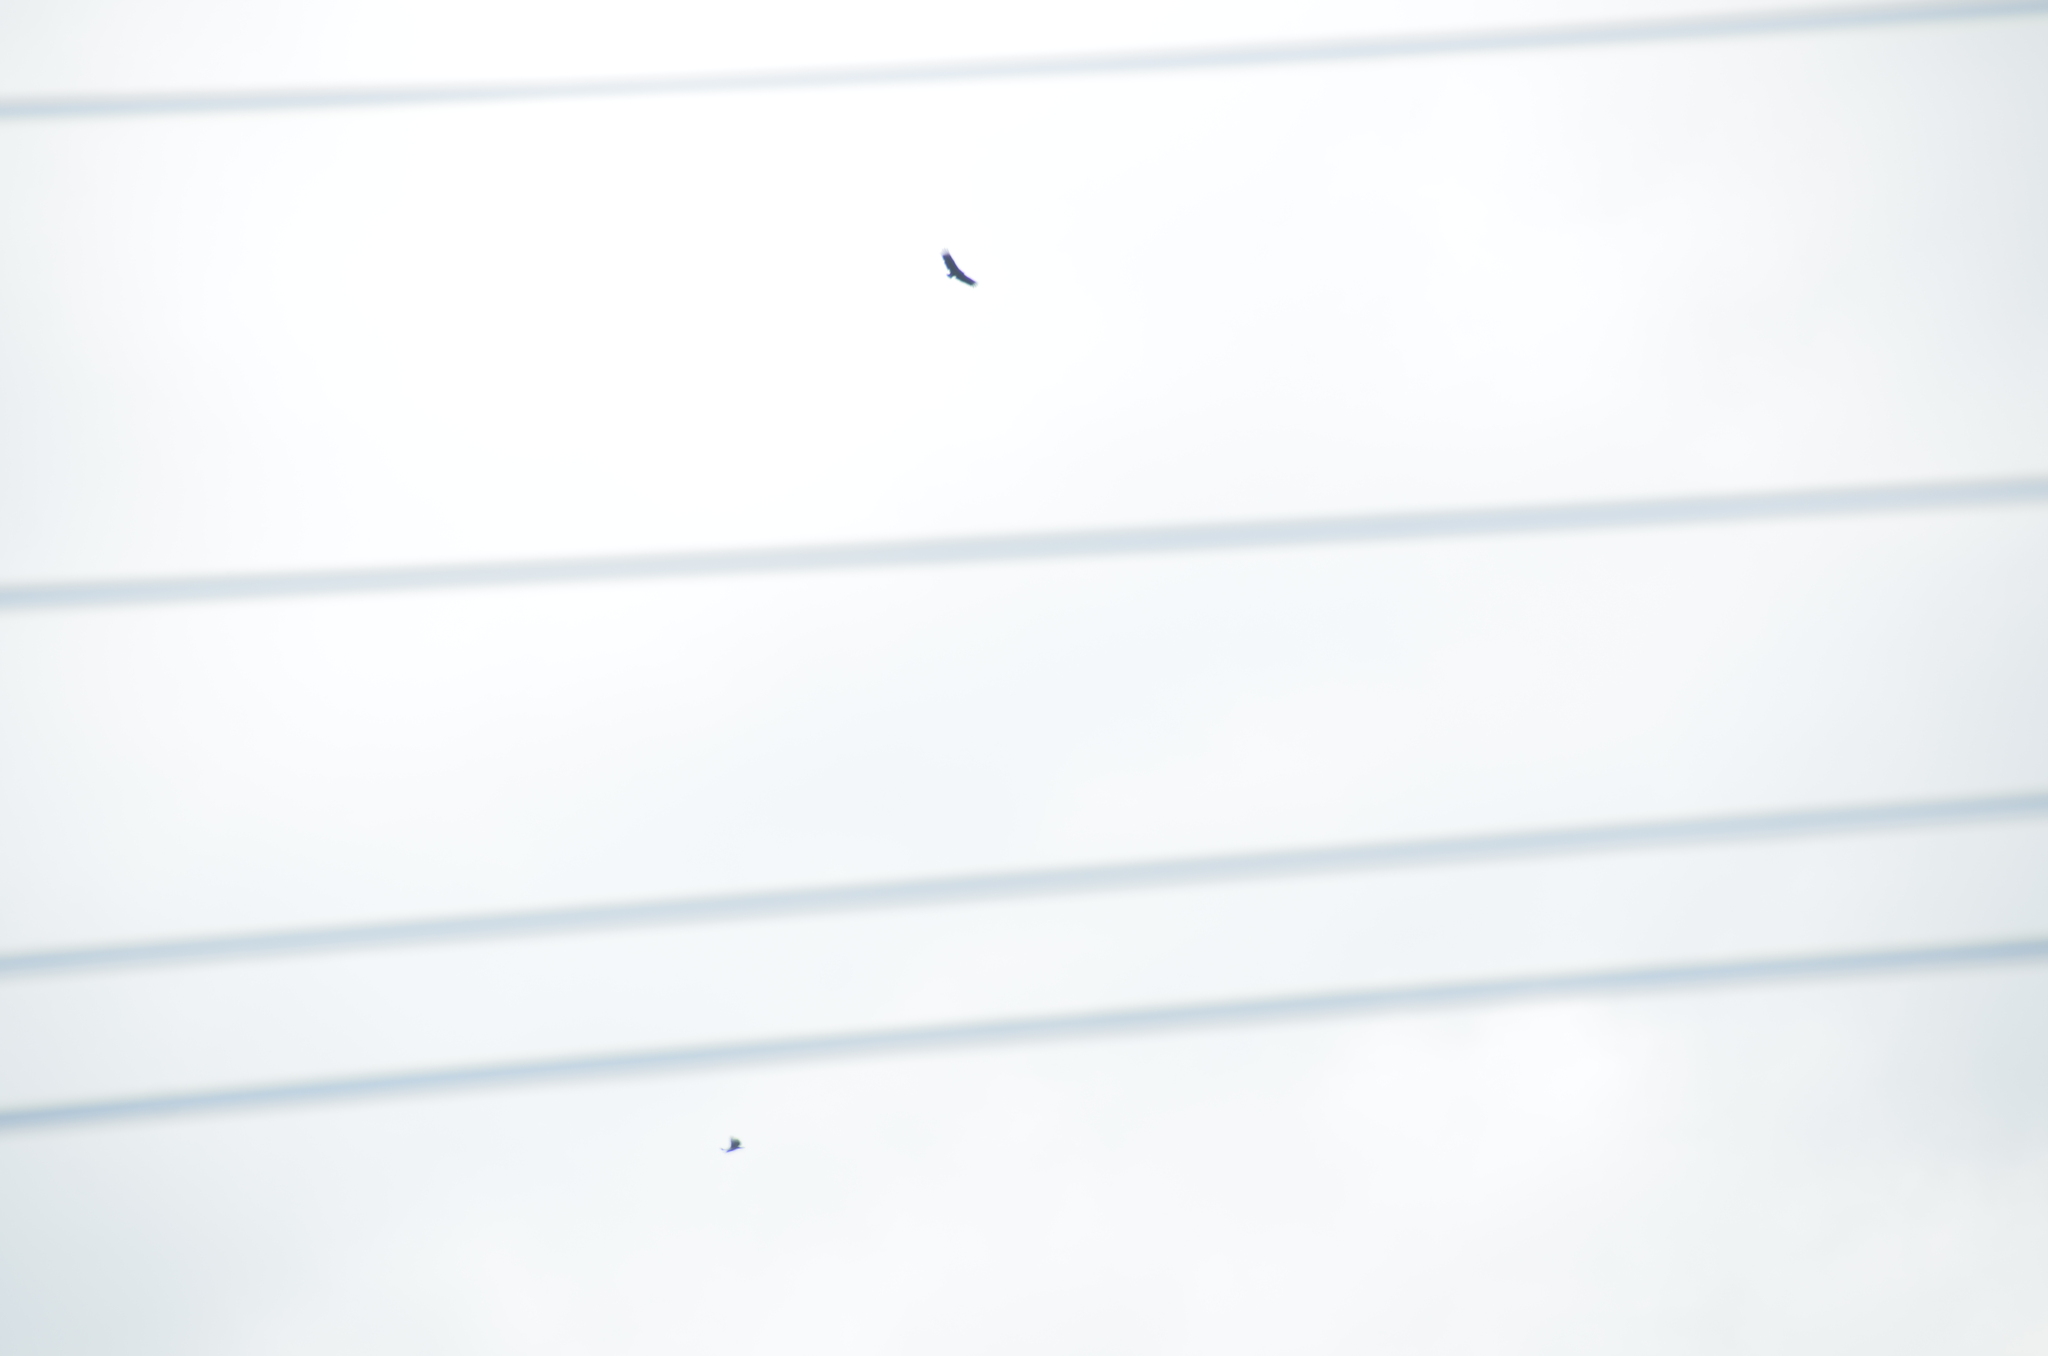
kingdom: Animalia
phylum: Chordata
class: Aves
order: Accipitriformes
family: Cathartidae
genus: Coragyps
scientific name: Coragyps atratus
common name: Black vulture
